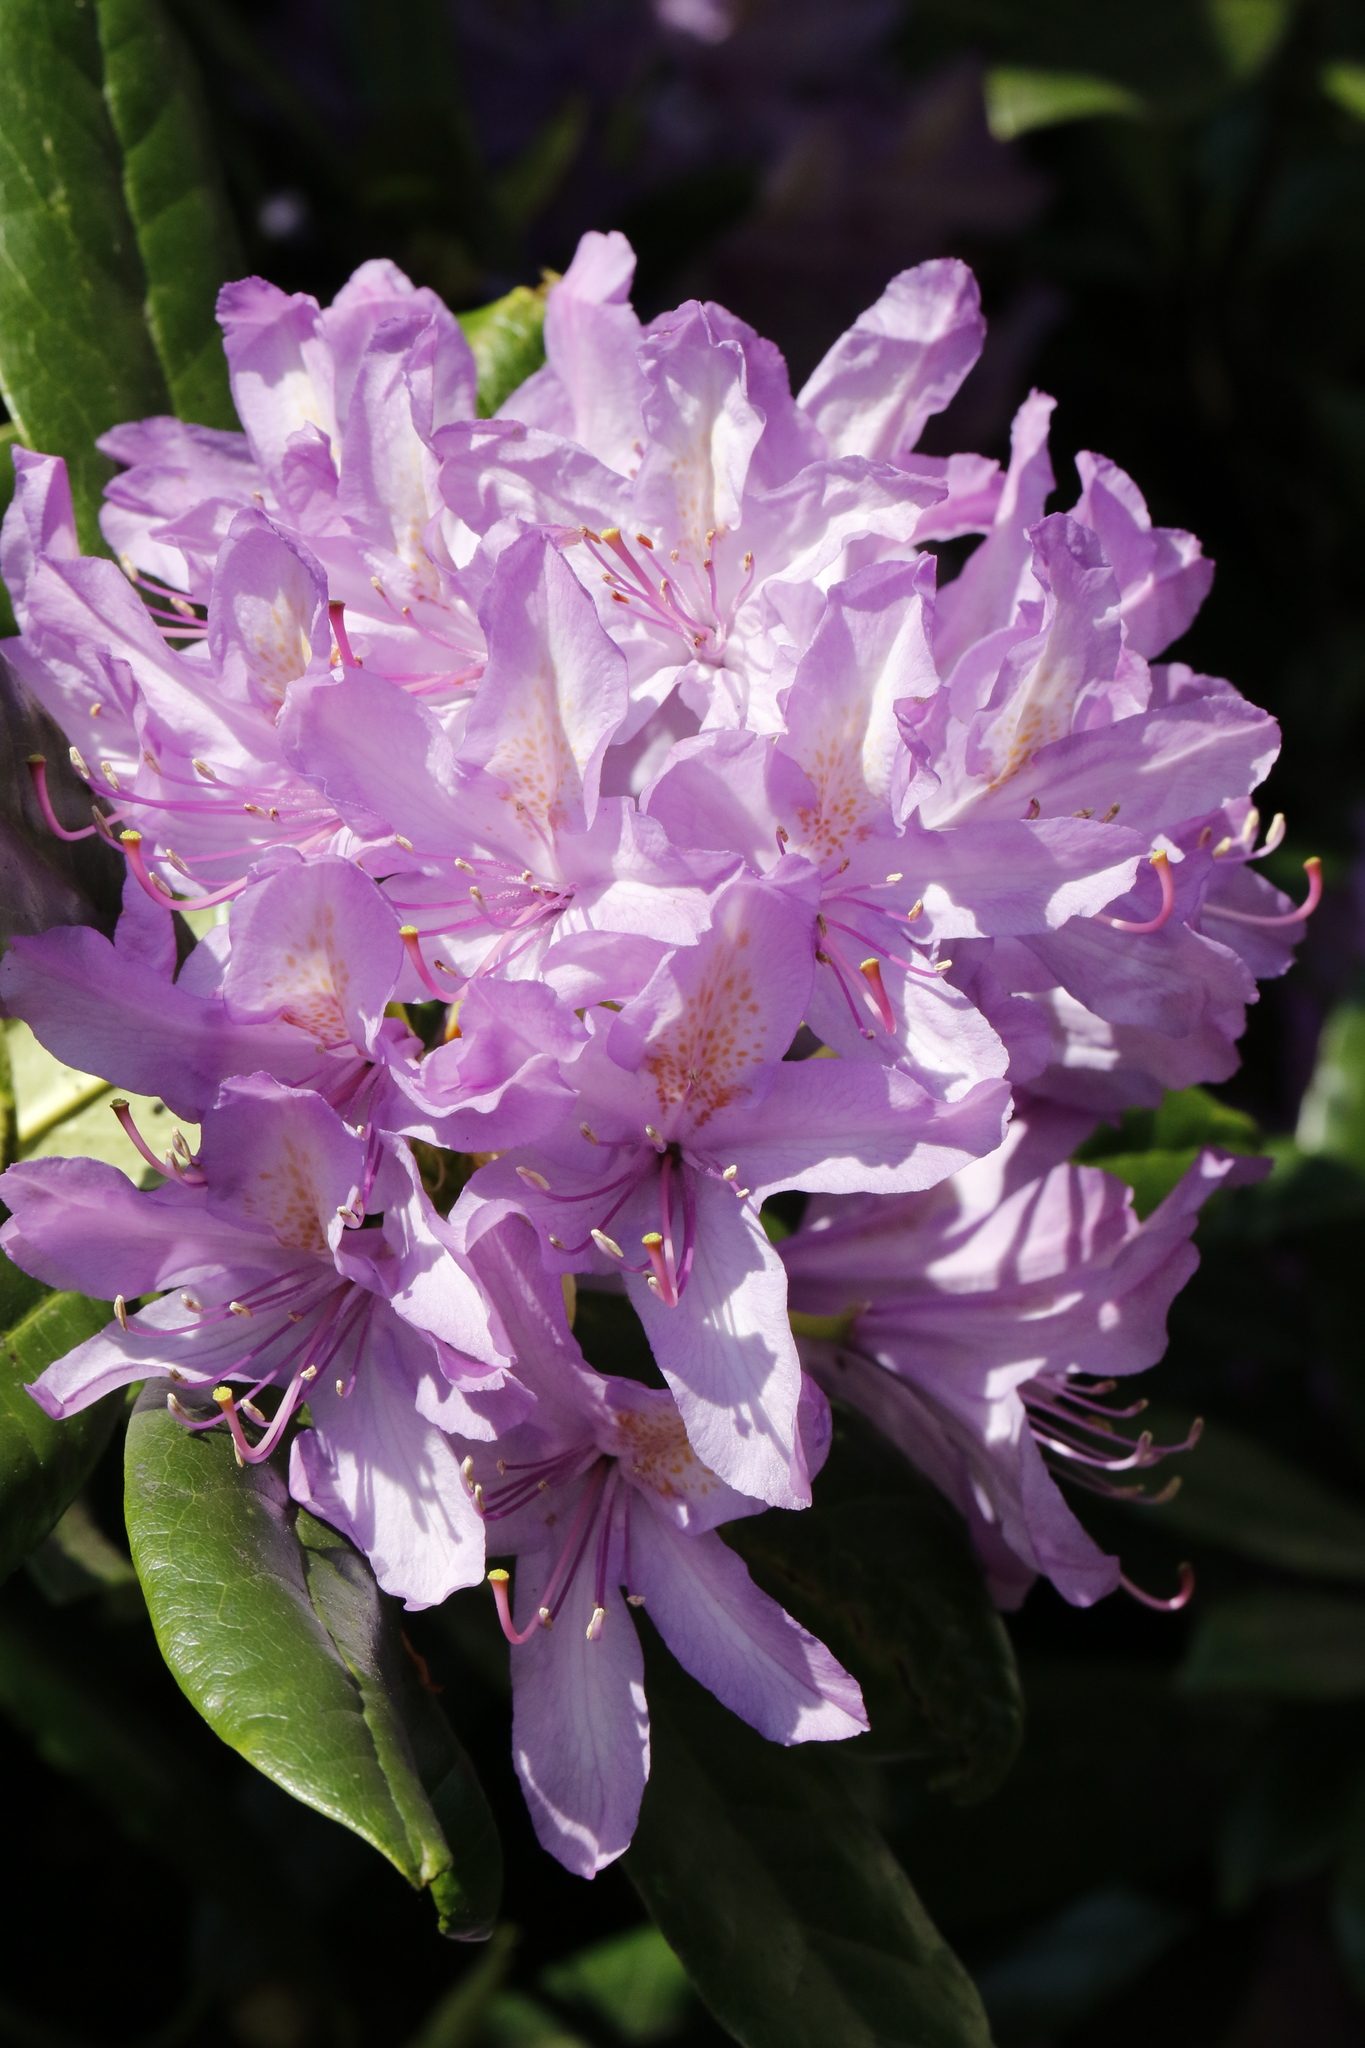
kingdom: Plantae
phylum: Tracheophyta
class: Magnoliopsida
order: Ericales
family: Ericaceae
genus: Rhododendron
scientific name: Rhododendron ponticum
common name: Rhododendron
